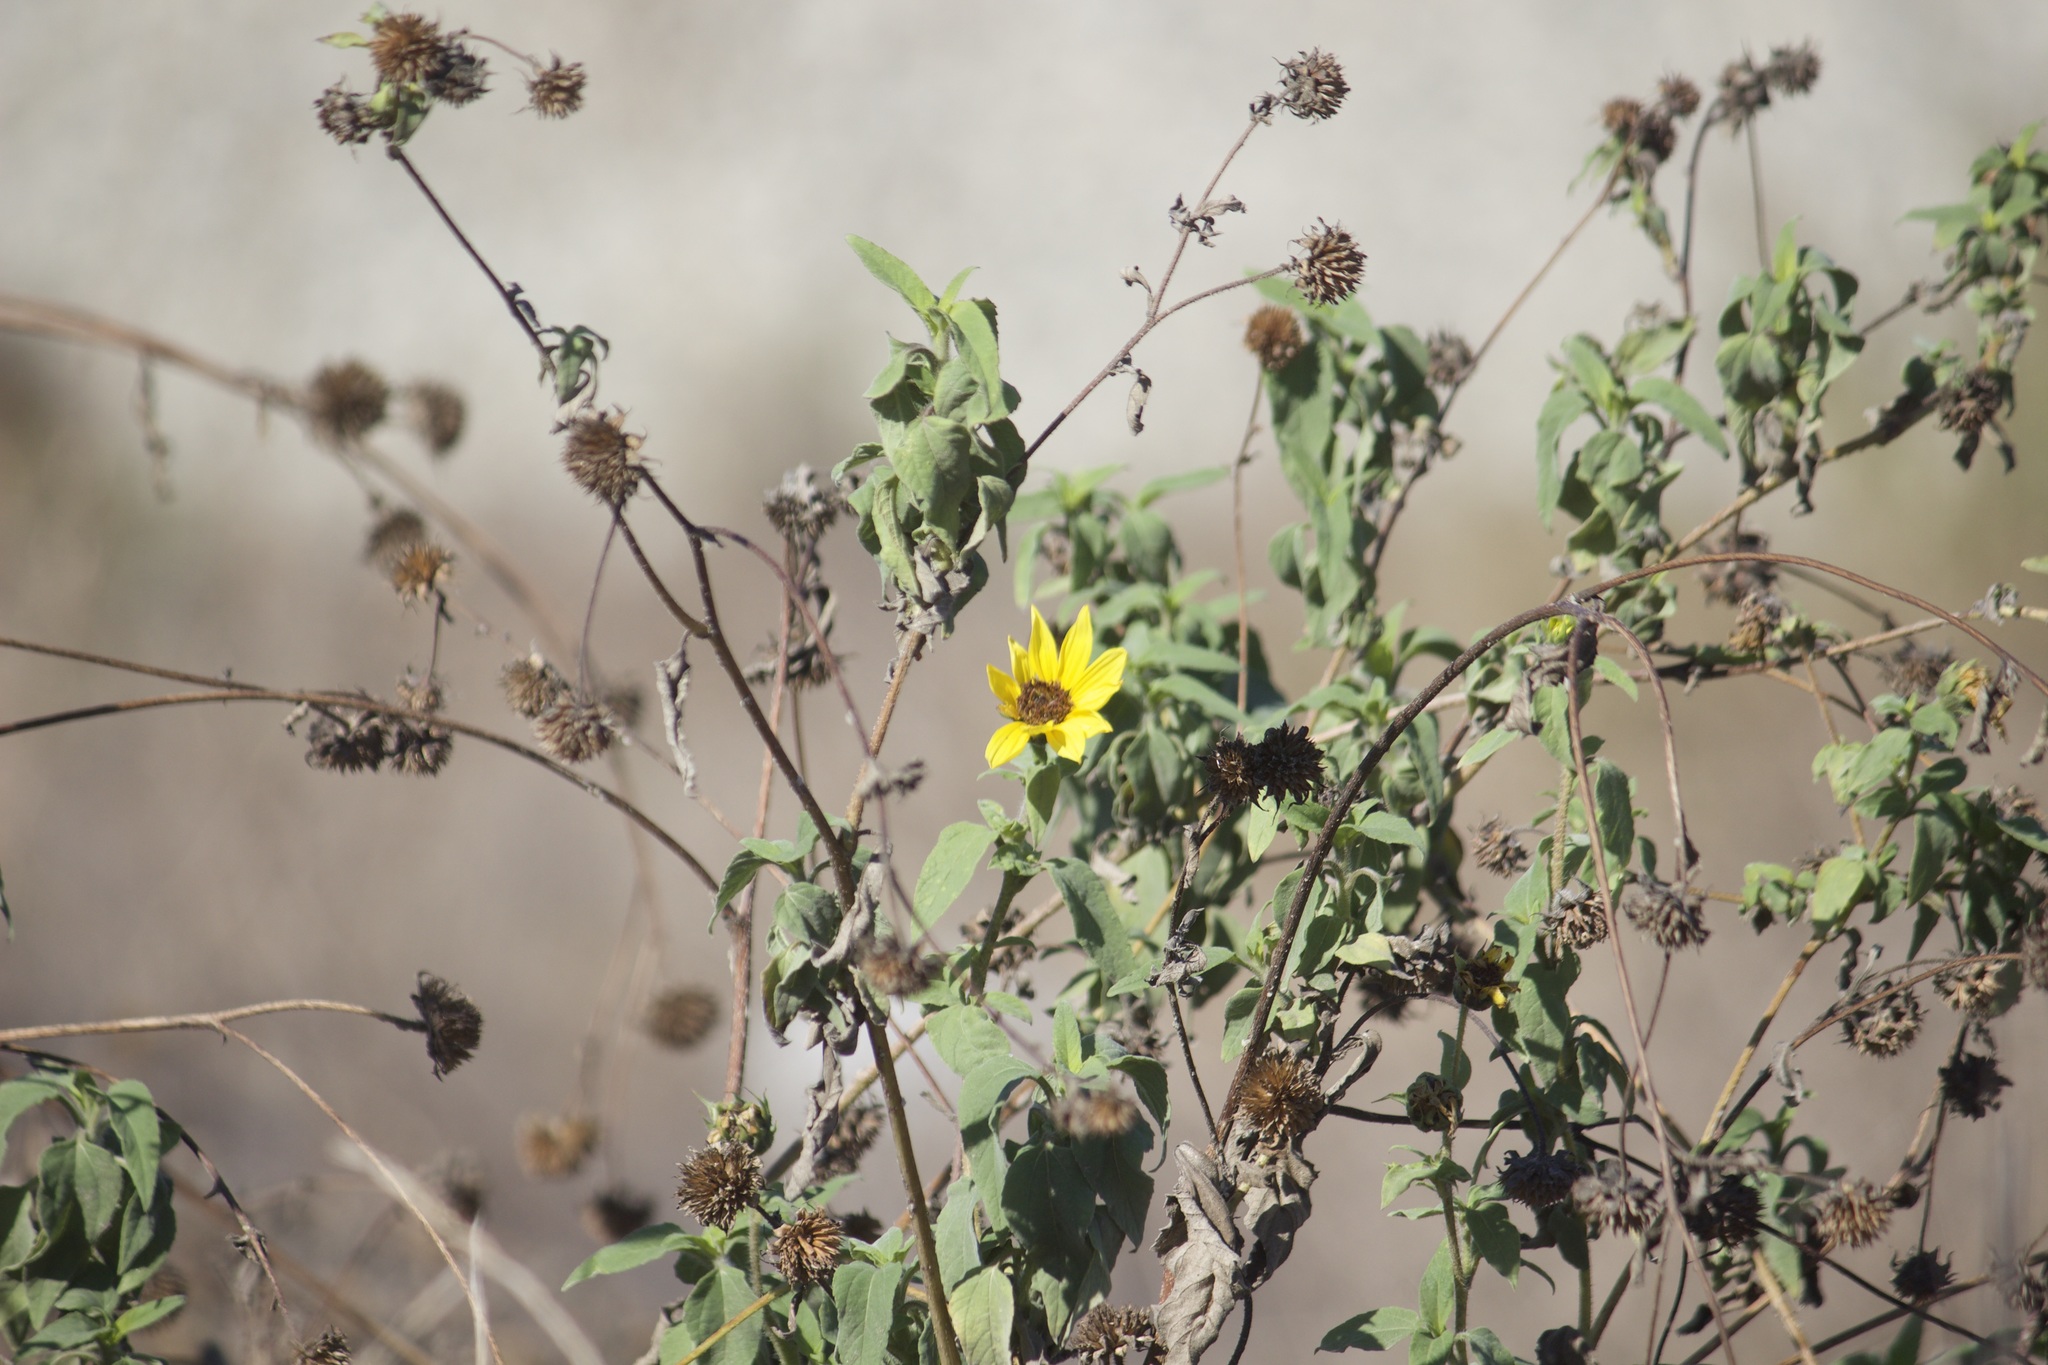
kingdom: Plantae
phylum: Tracheophyta
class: Magnoliopsida
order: Asterales
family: Asteraceae
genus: Helianthus
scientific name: Helianthus annuus
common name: Sunflower
